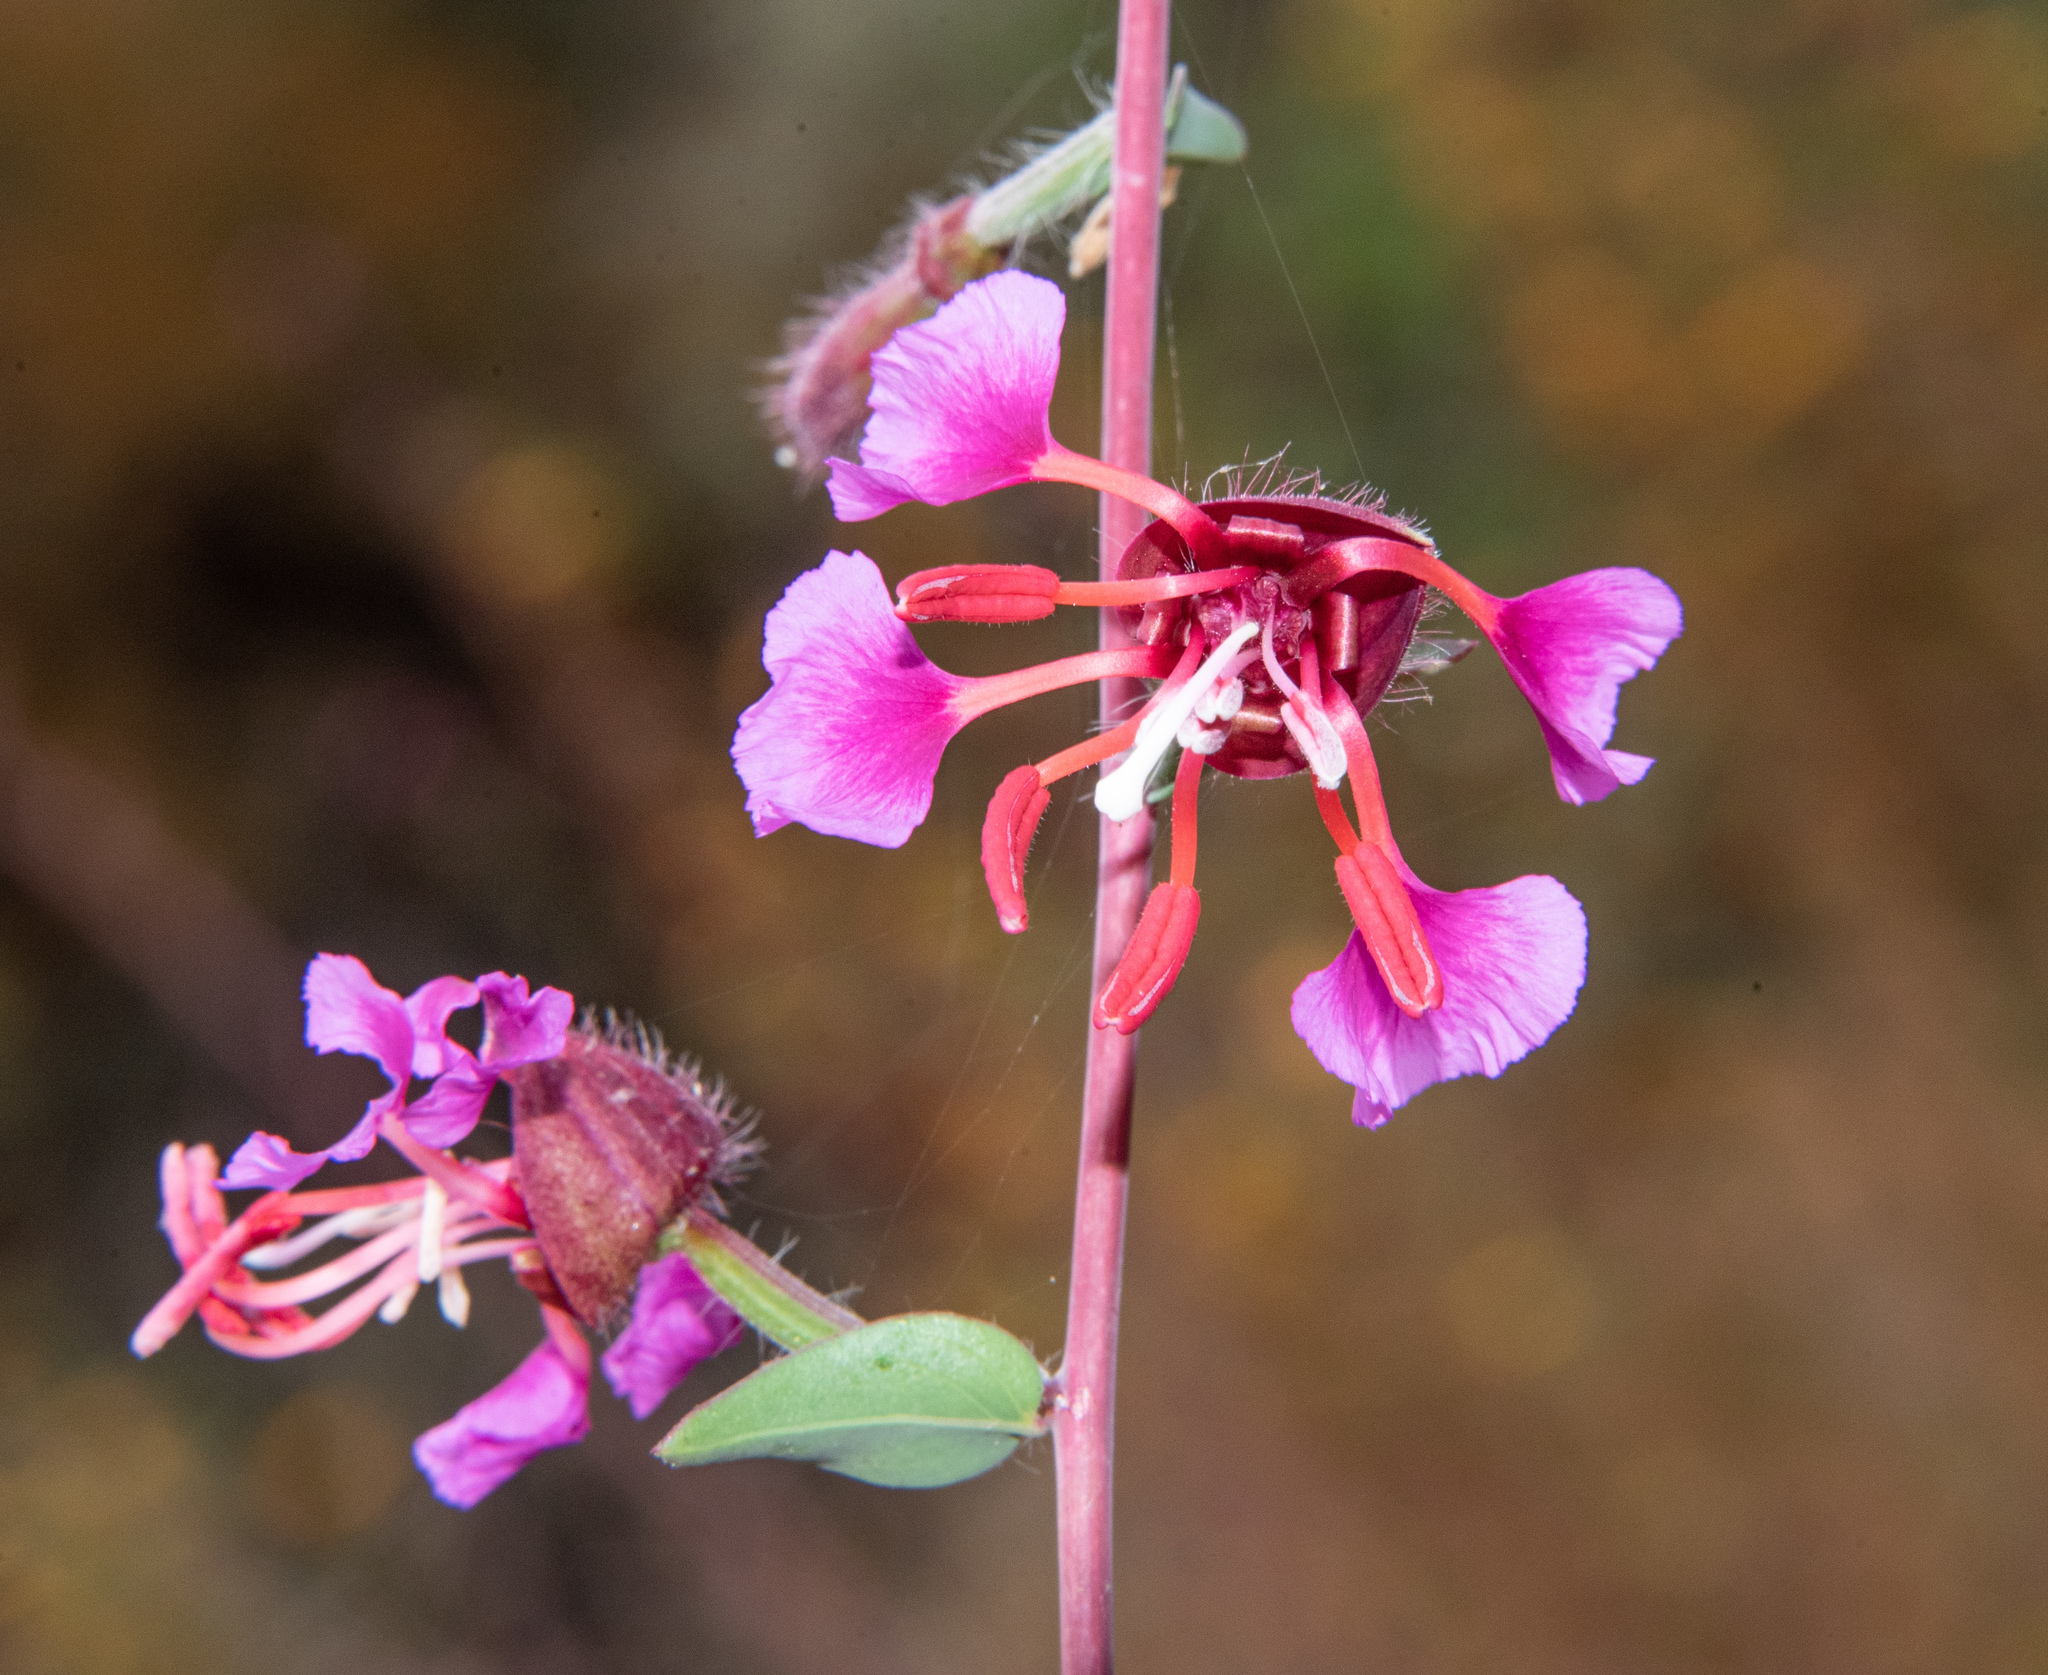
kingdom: Plantae
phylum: Tracheophyta
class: Magnoliopsida
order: Myrtales
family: Onagraceae
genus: Clarkia
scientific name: Clarkia unguiculata
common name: Clarkia
